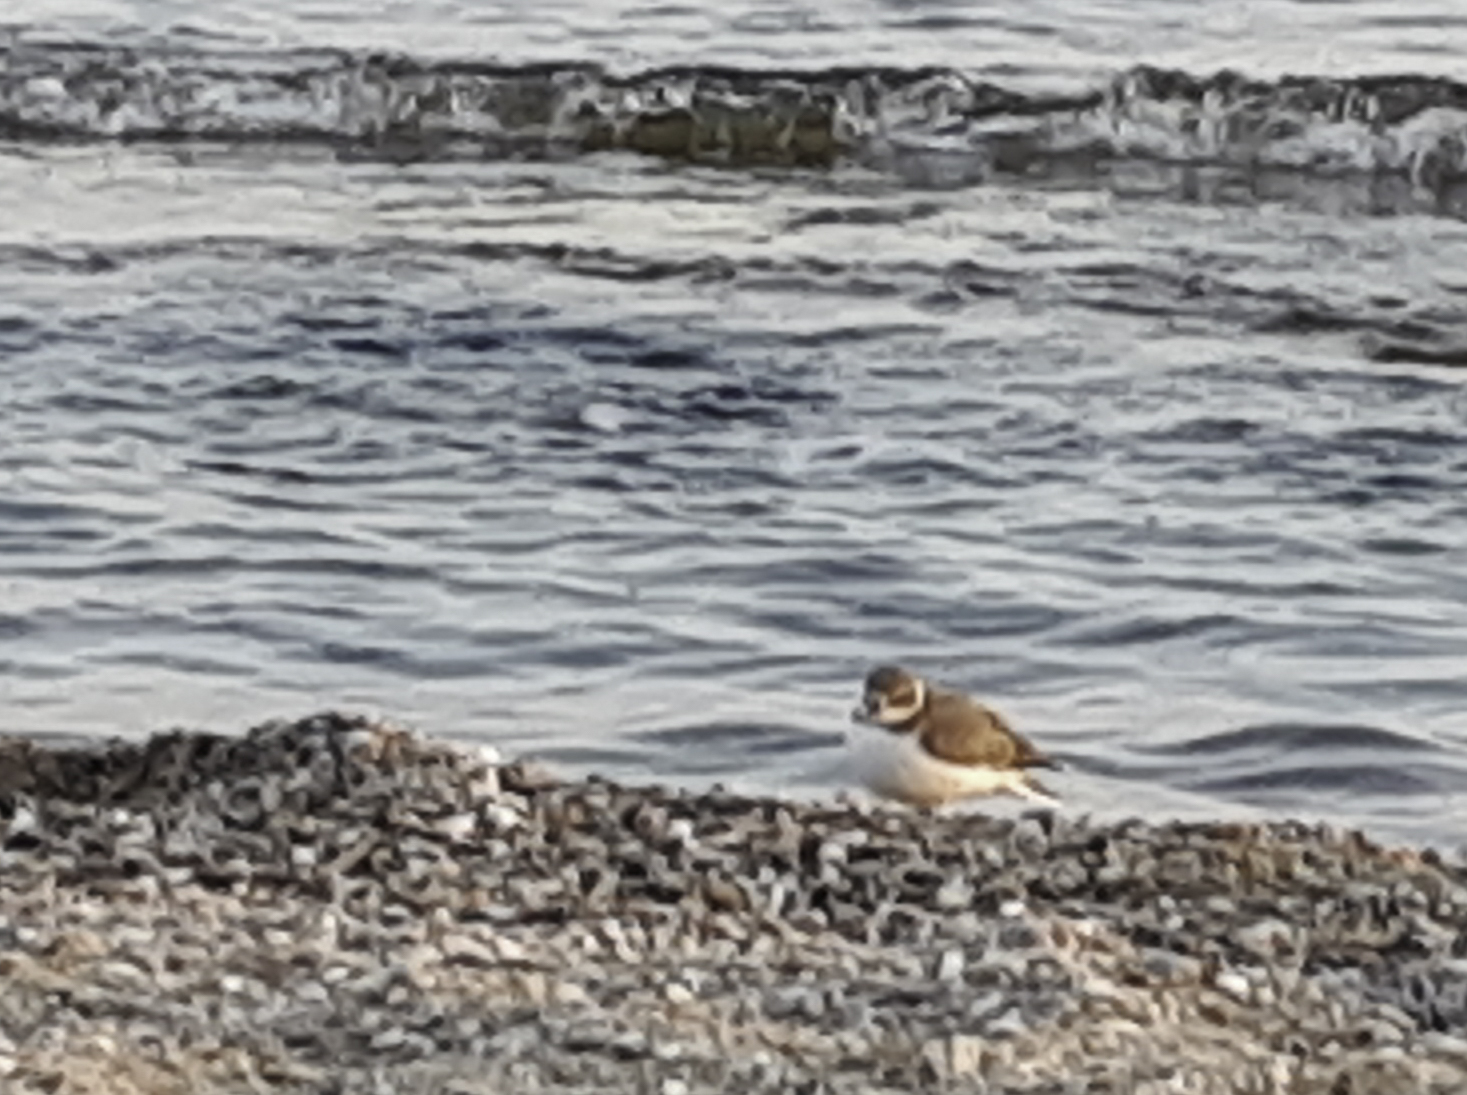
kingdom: Animalia
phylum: Chordata
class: Aves
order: Charadriiformes
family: Charadriidae
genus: Charadrius
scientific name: Charadrius alexandrinus
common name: Kentish plover
